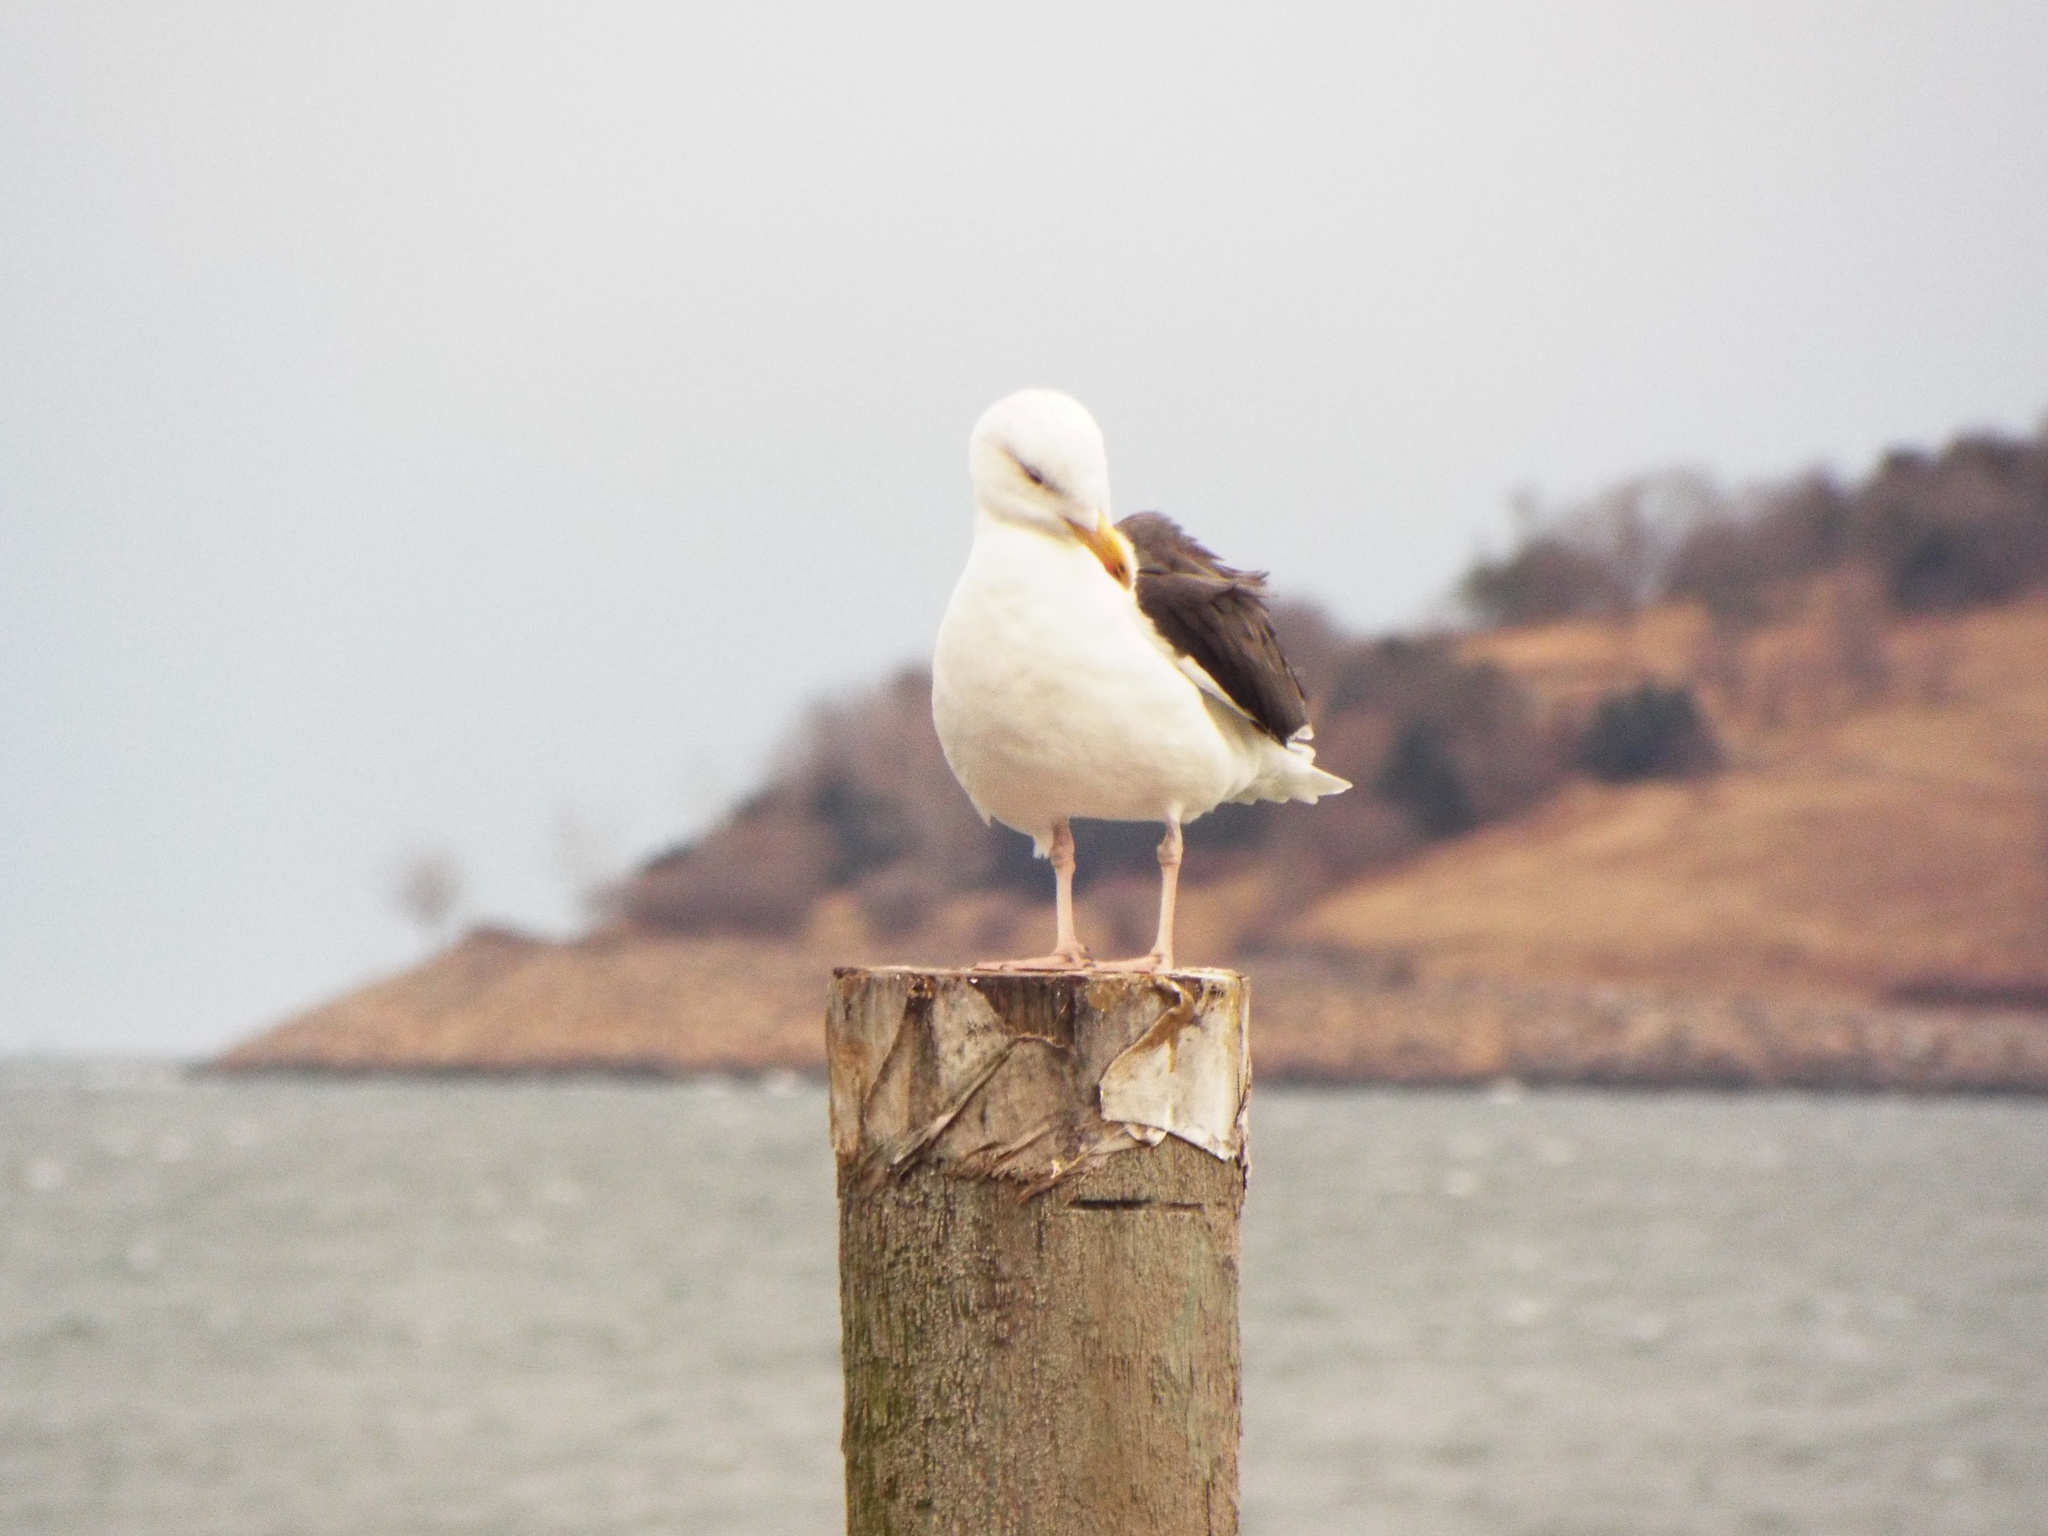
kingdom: Animalia
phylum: Chordata
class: Aves
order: Charadriiformes
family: Laridae
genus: Larus
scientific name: Larus marinus
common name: Great black-backed gull
